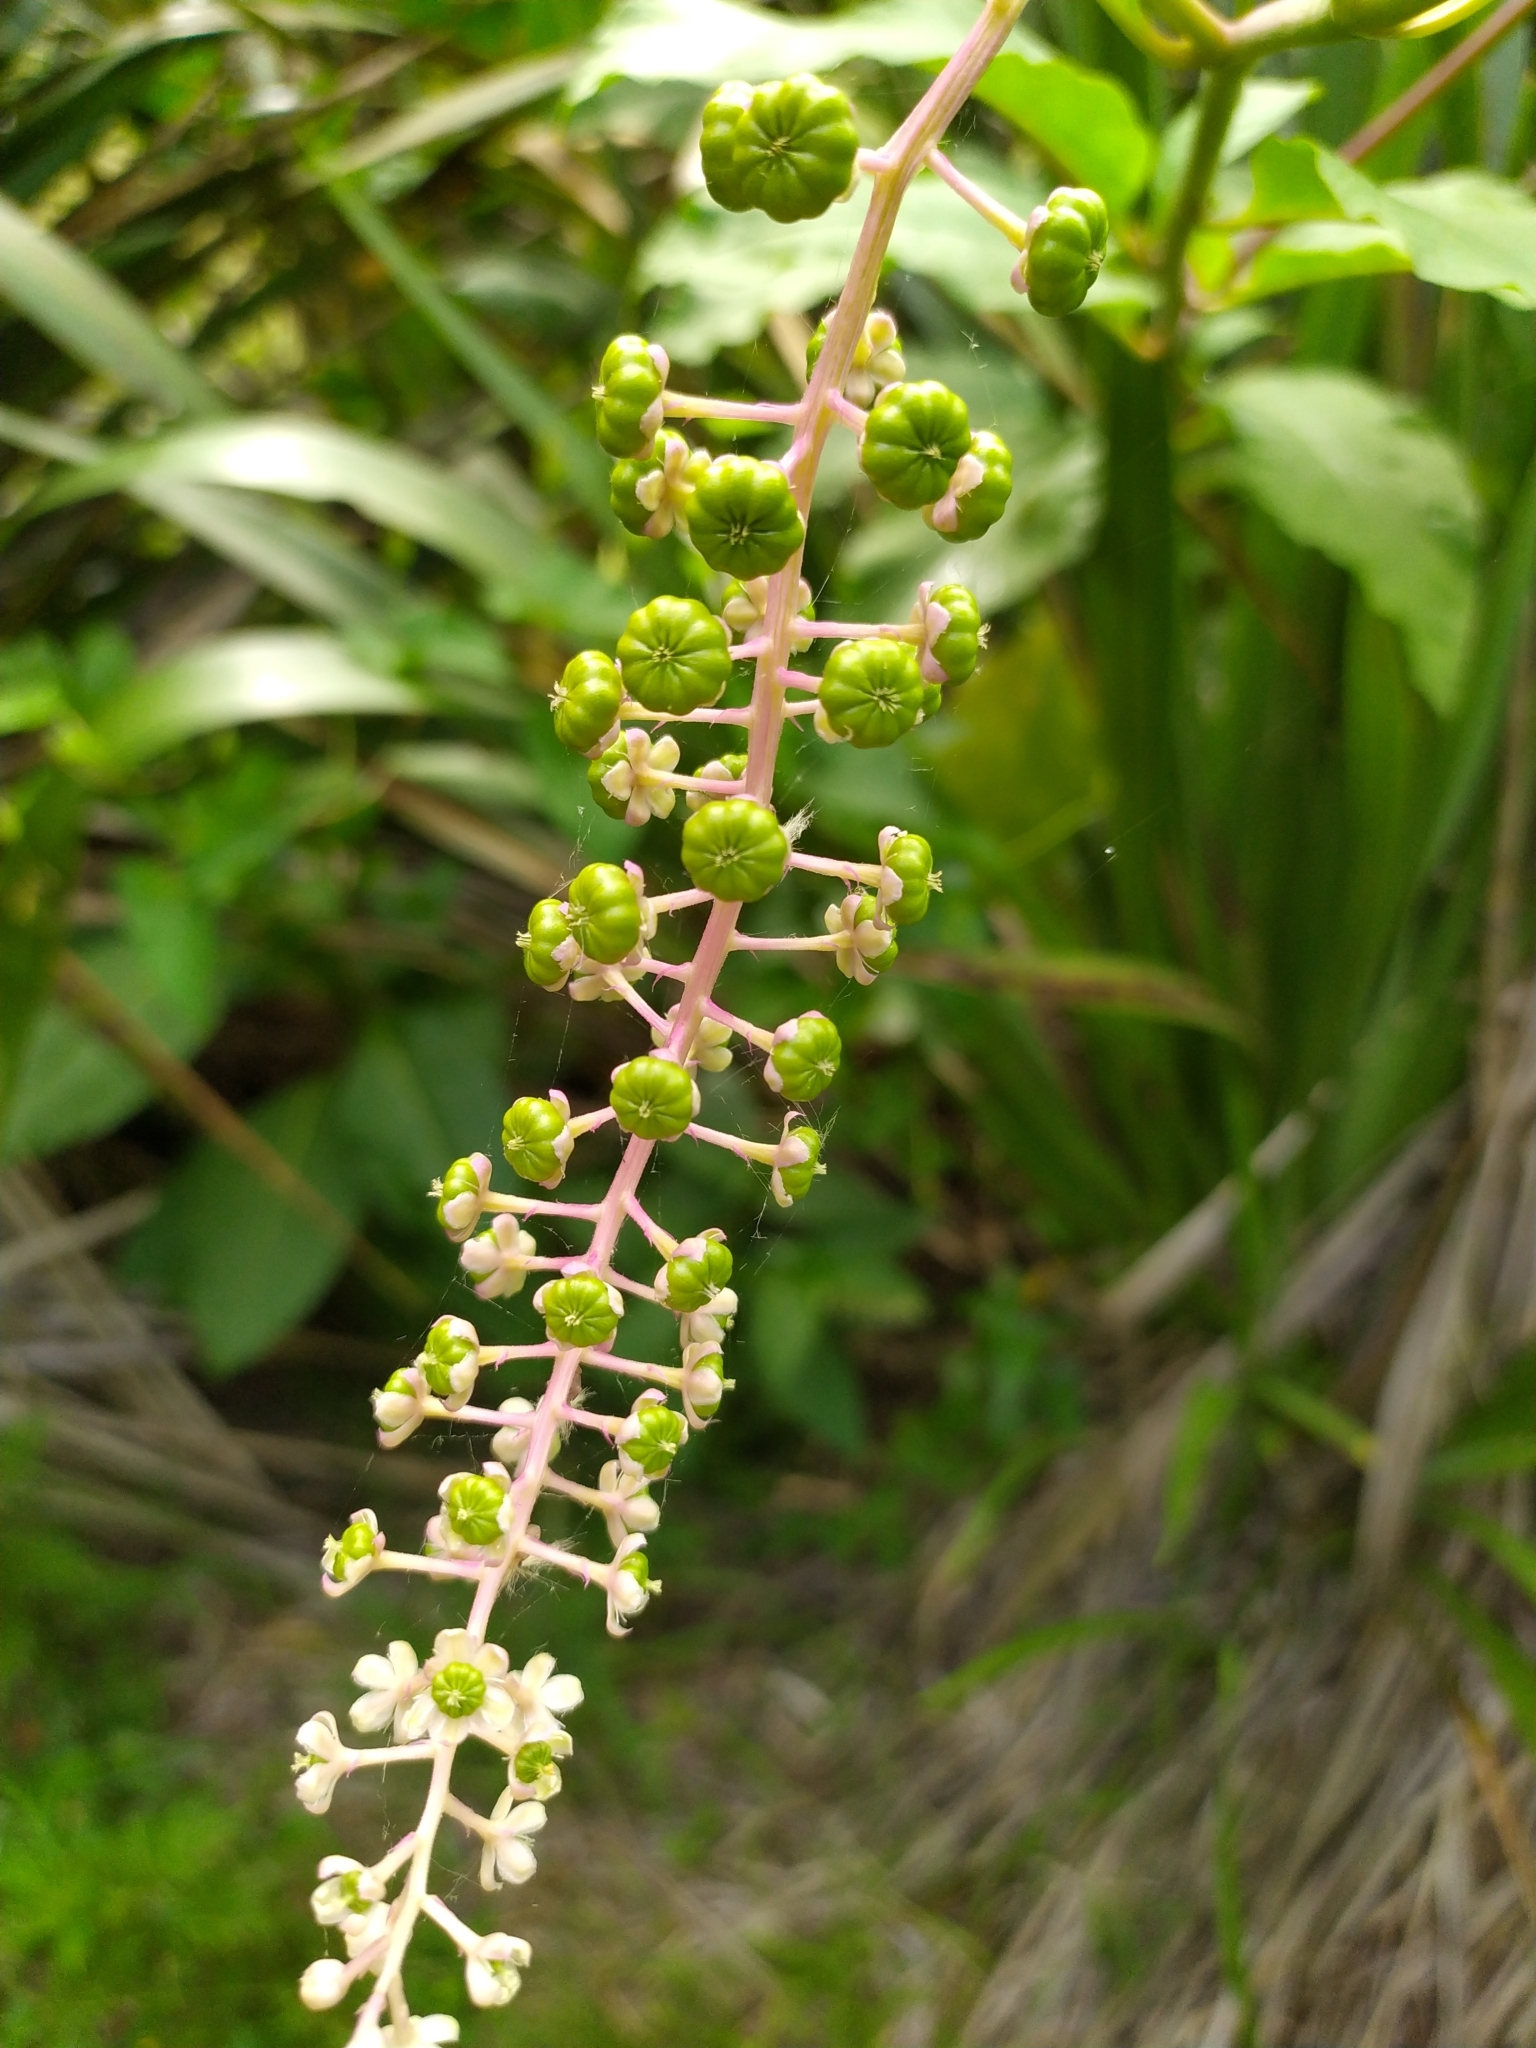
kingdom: Plantae
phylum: Tracheophyta
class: Magnoliopsida
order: Caryophyllales
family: Phytolaccaceae
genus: Phytolacca
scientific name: Phytolacca americana
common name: American pokeweed
